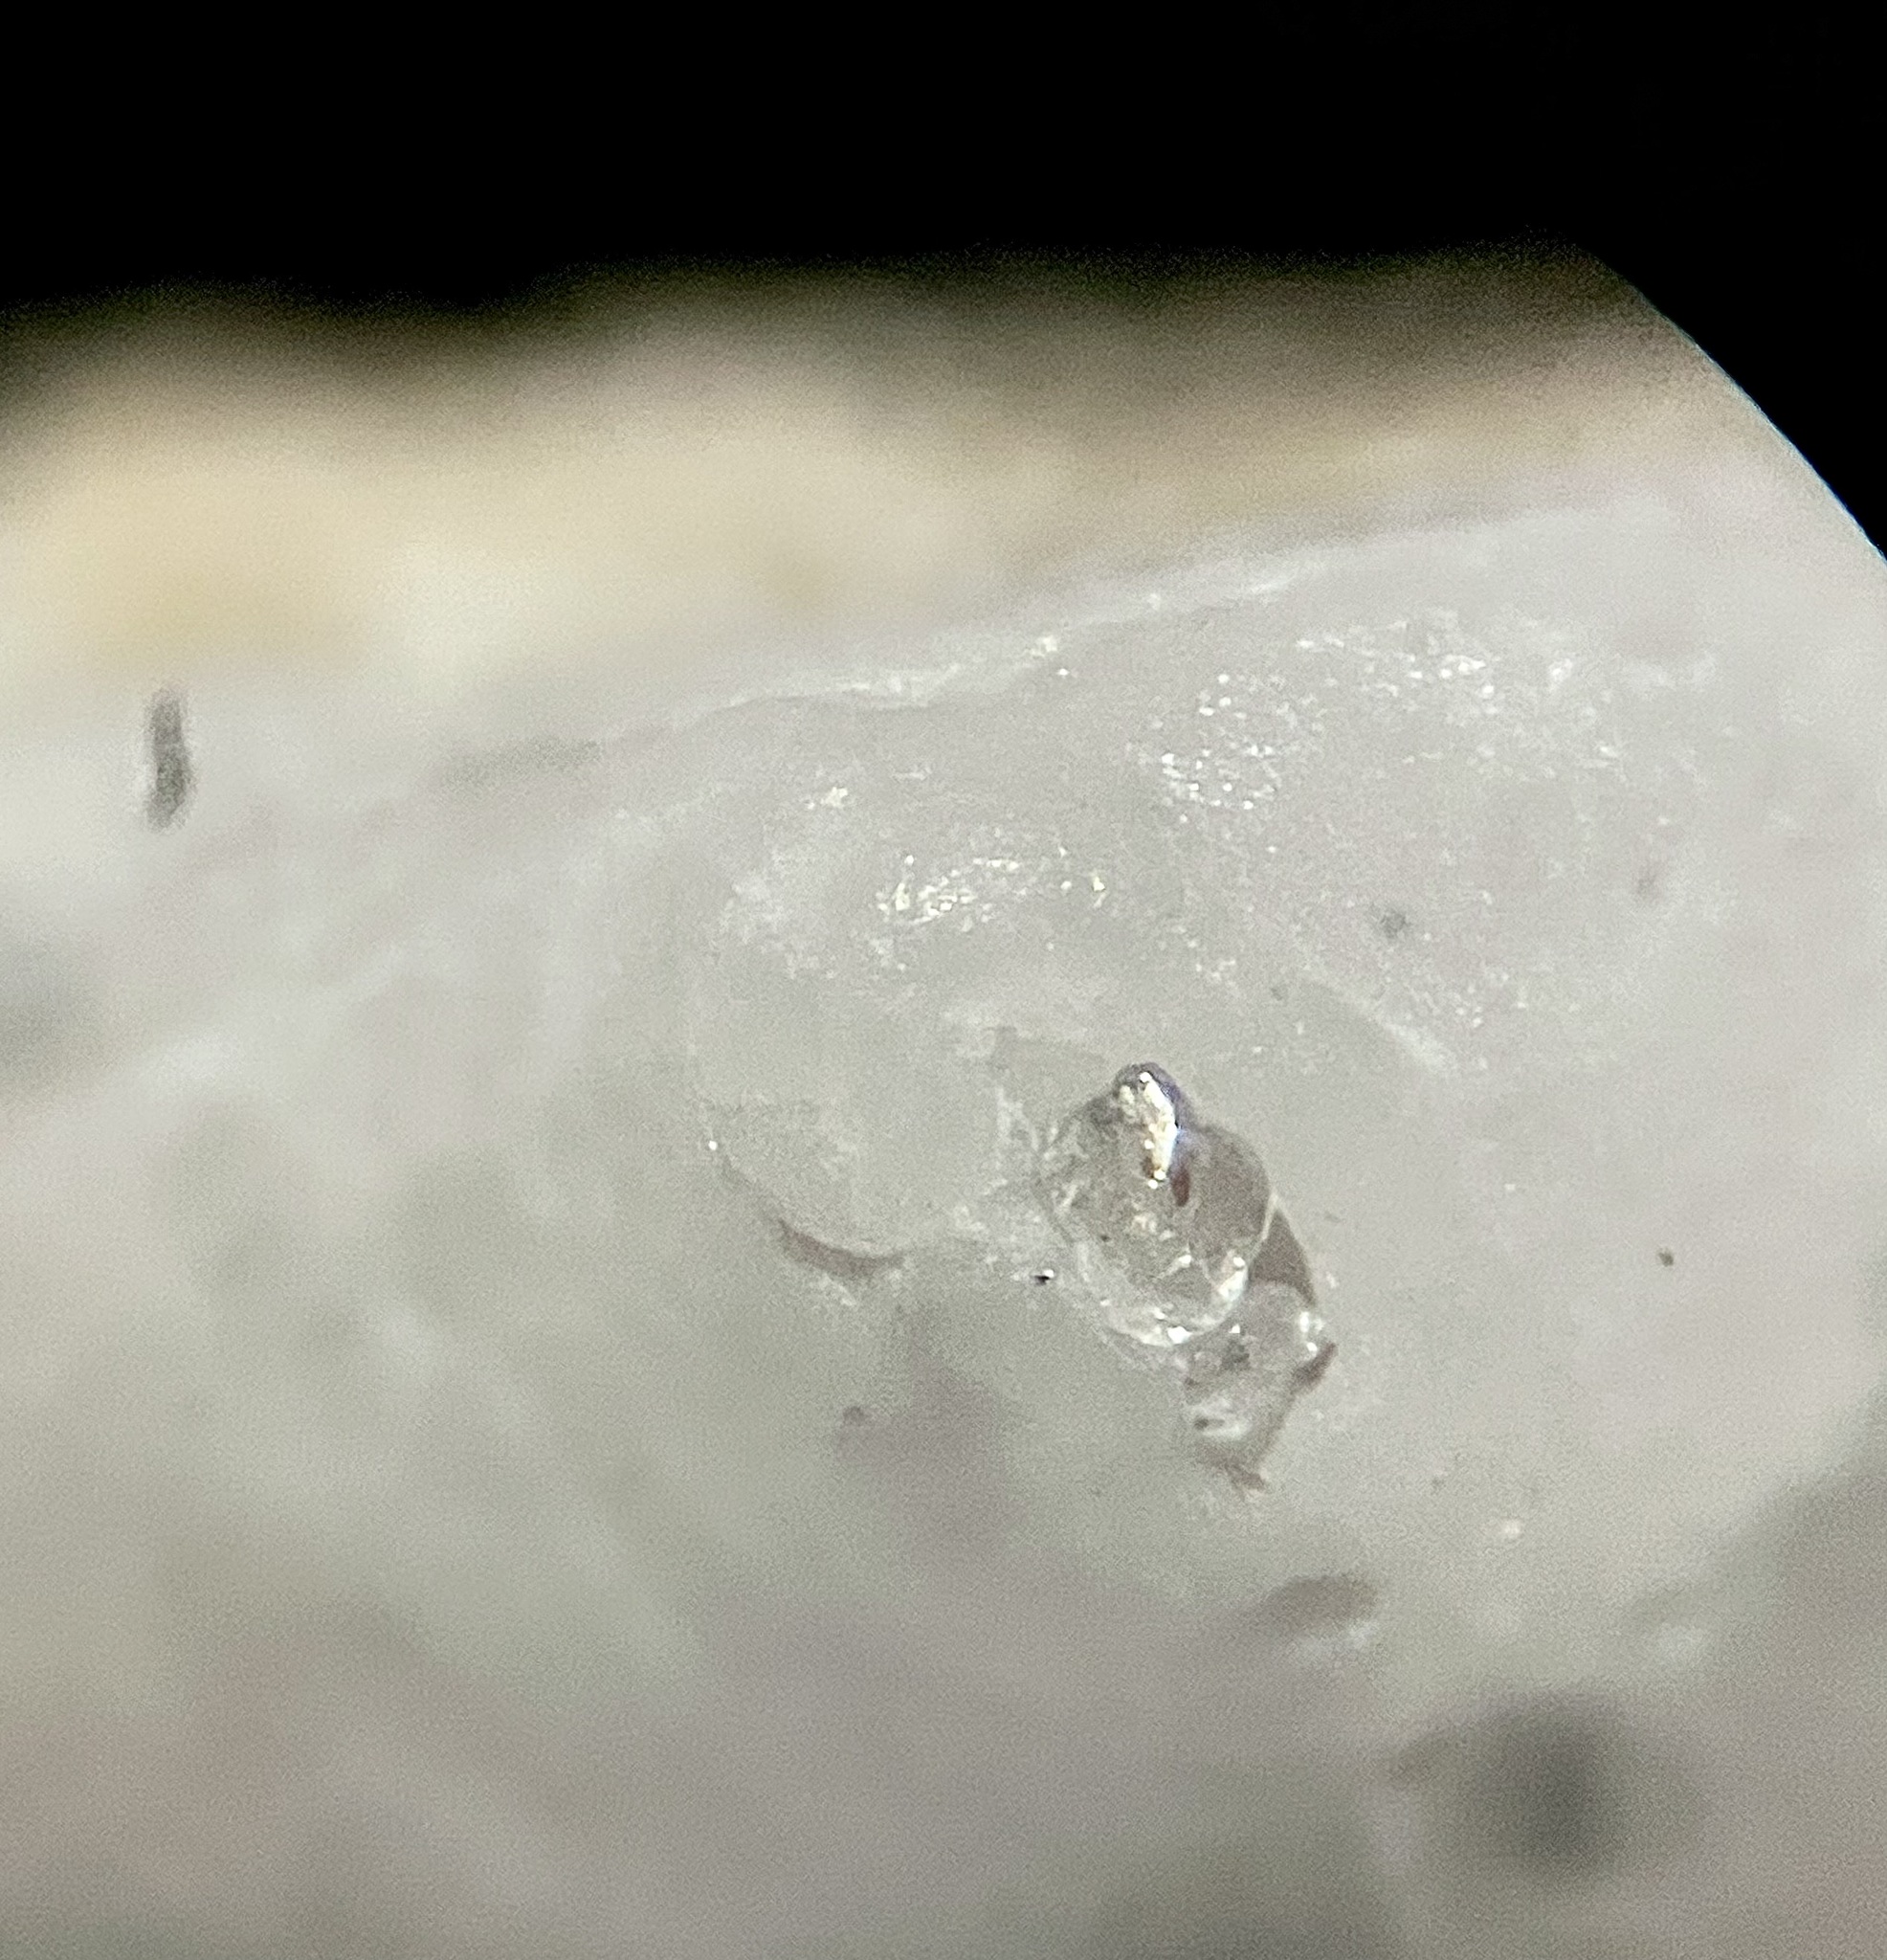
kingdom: Animalia
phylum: Mollusca
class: Gastropoda
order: Littorinimorpha
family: Calyptraeidae
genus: Crepidula
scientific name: Crepidula depressa
